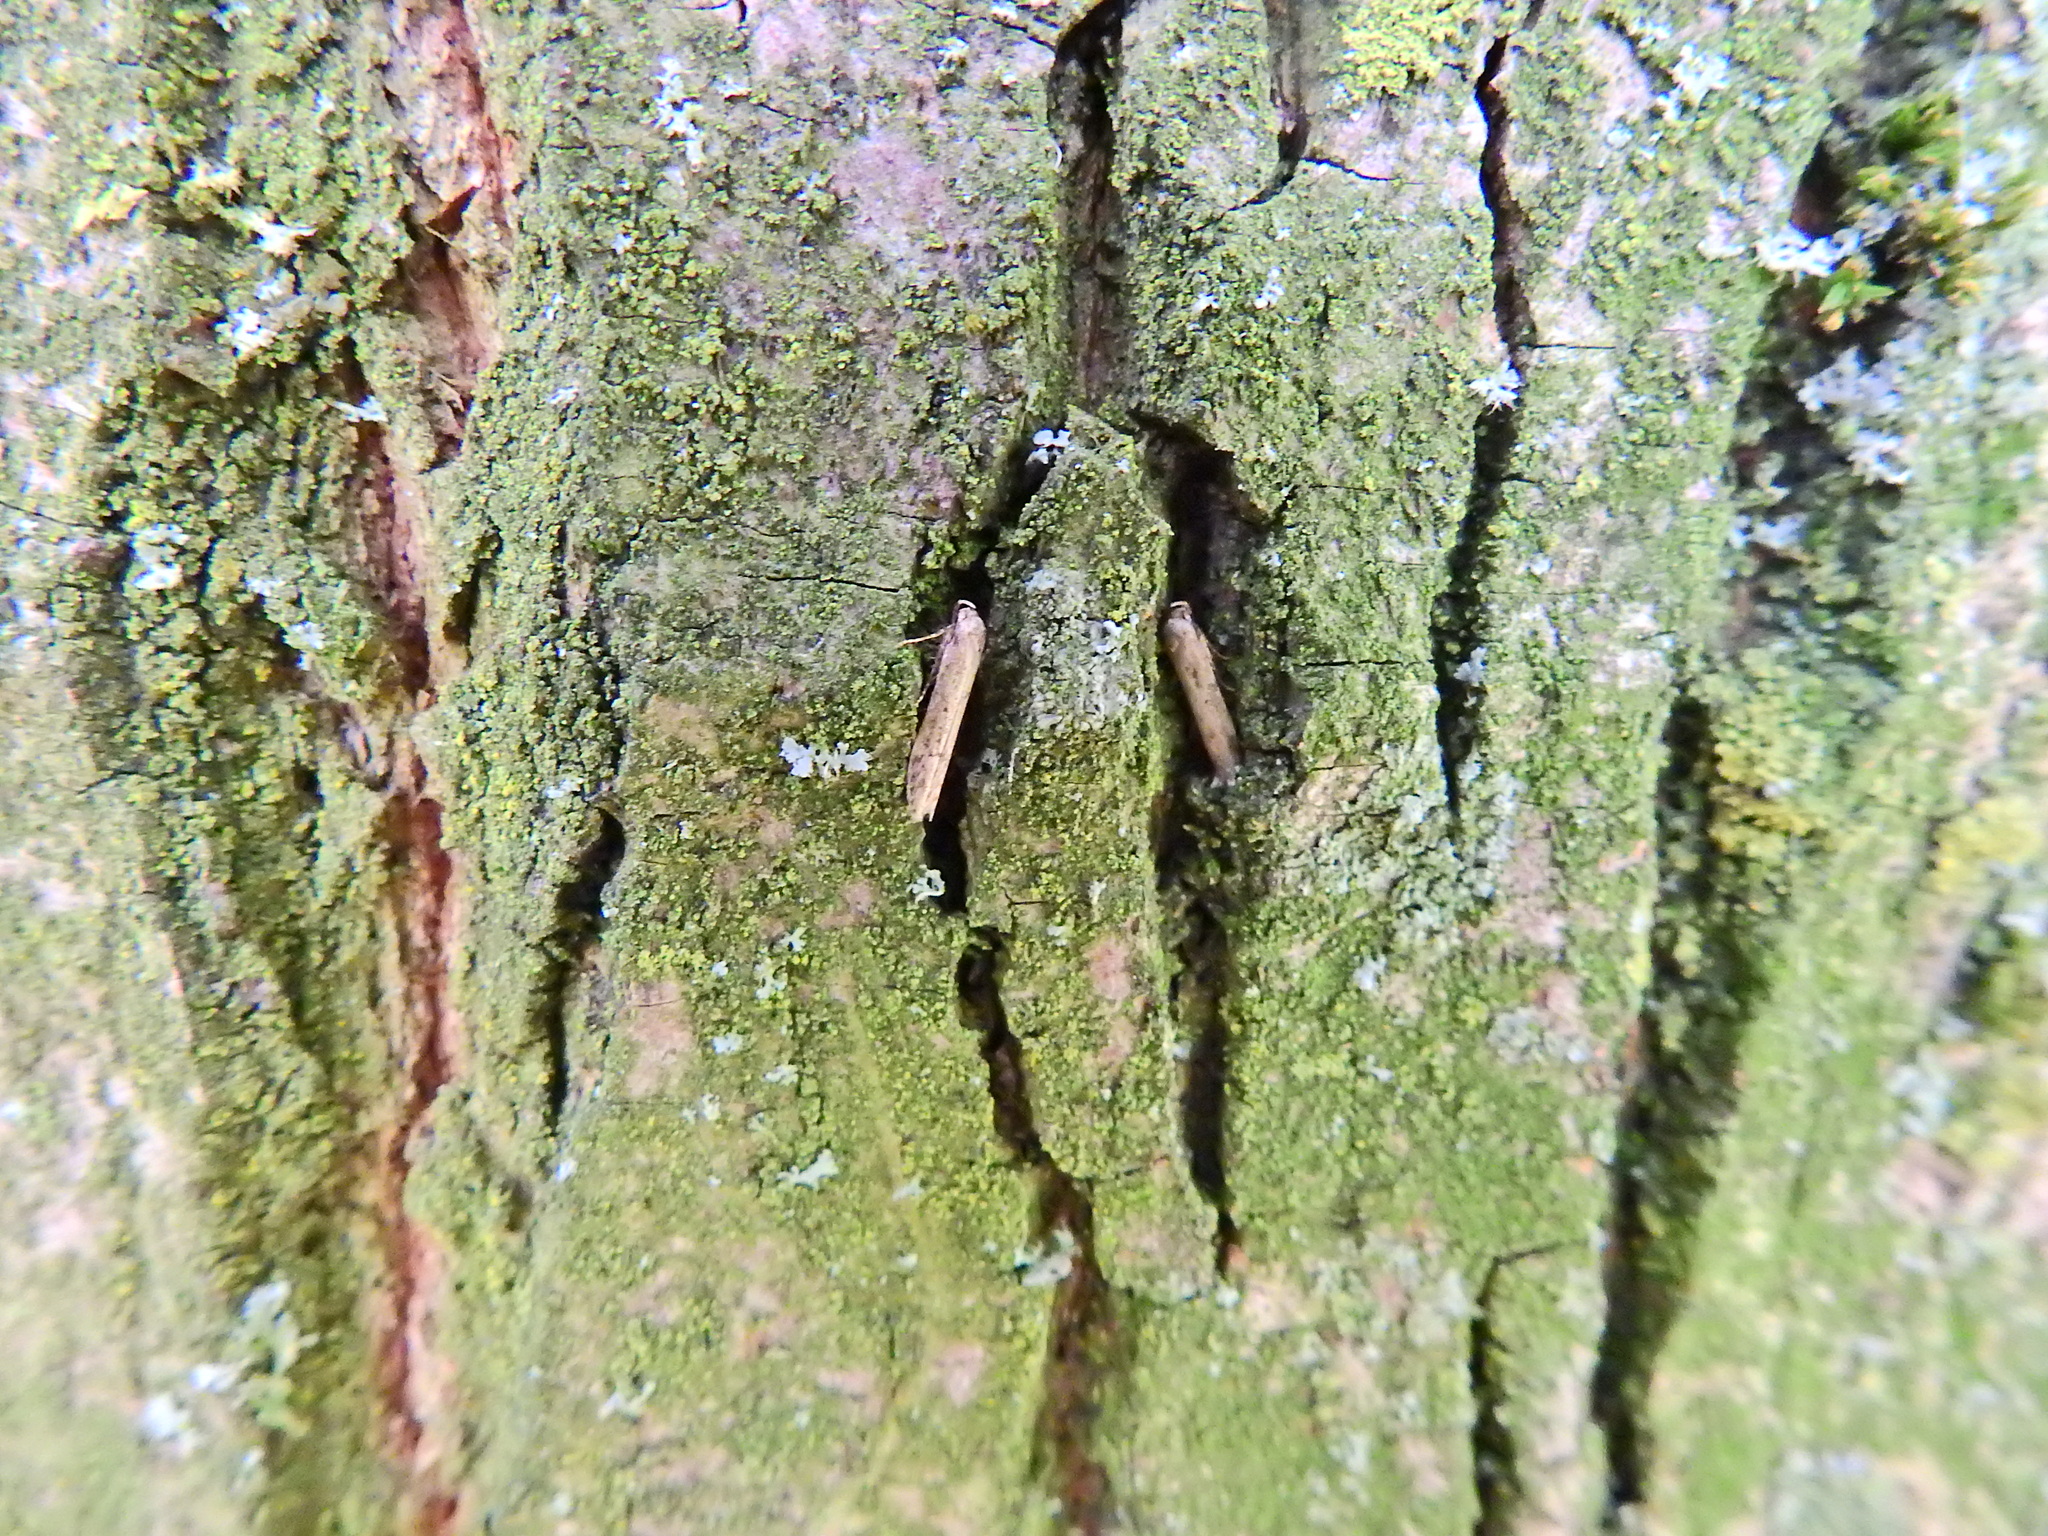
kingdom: Animalia
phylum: Arthropoda
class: Insecta
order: Lepidoptera
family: Blastobasidae
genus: Blastobasis
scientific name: Blastobasis adustella
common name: Dingy dowd
